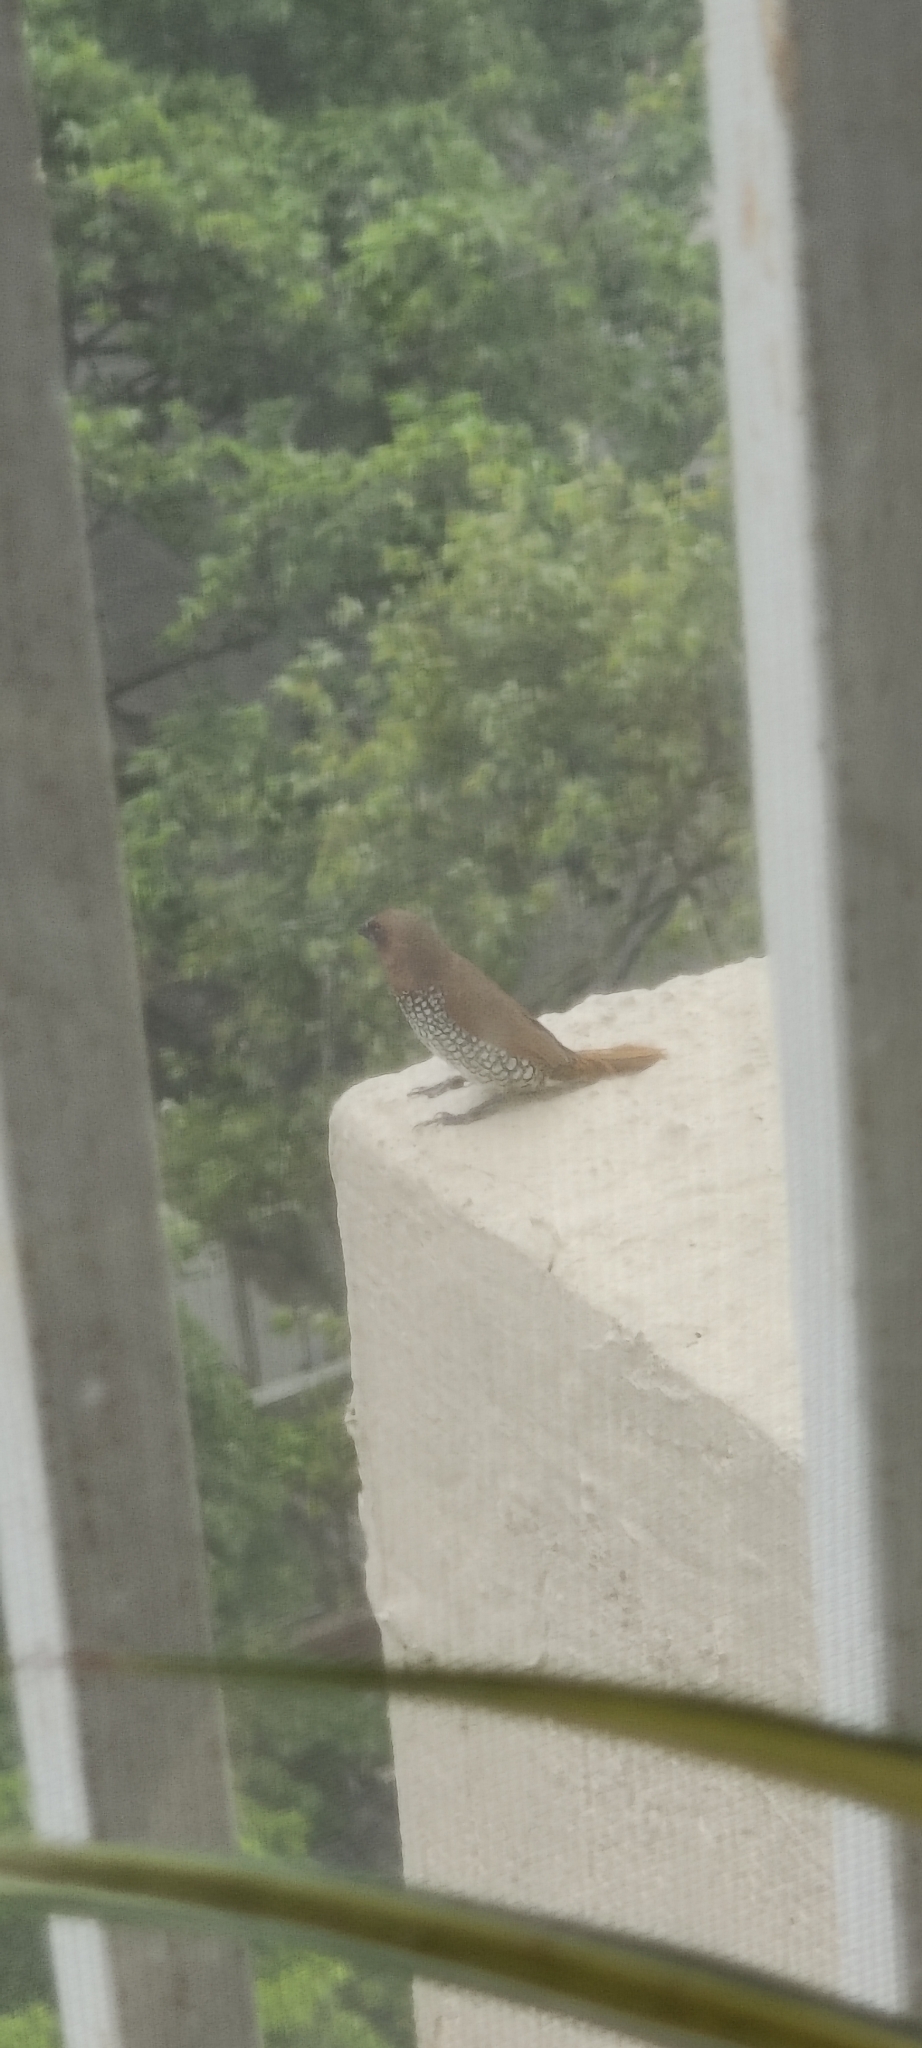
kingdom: Animalia
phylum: Chordata
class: Aves
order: Passeriformes
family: Estrildidae
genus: Lonchura
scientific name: Lonchura punctulata
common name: Scaly-breasted munia
